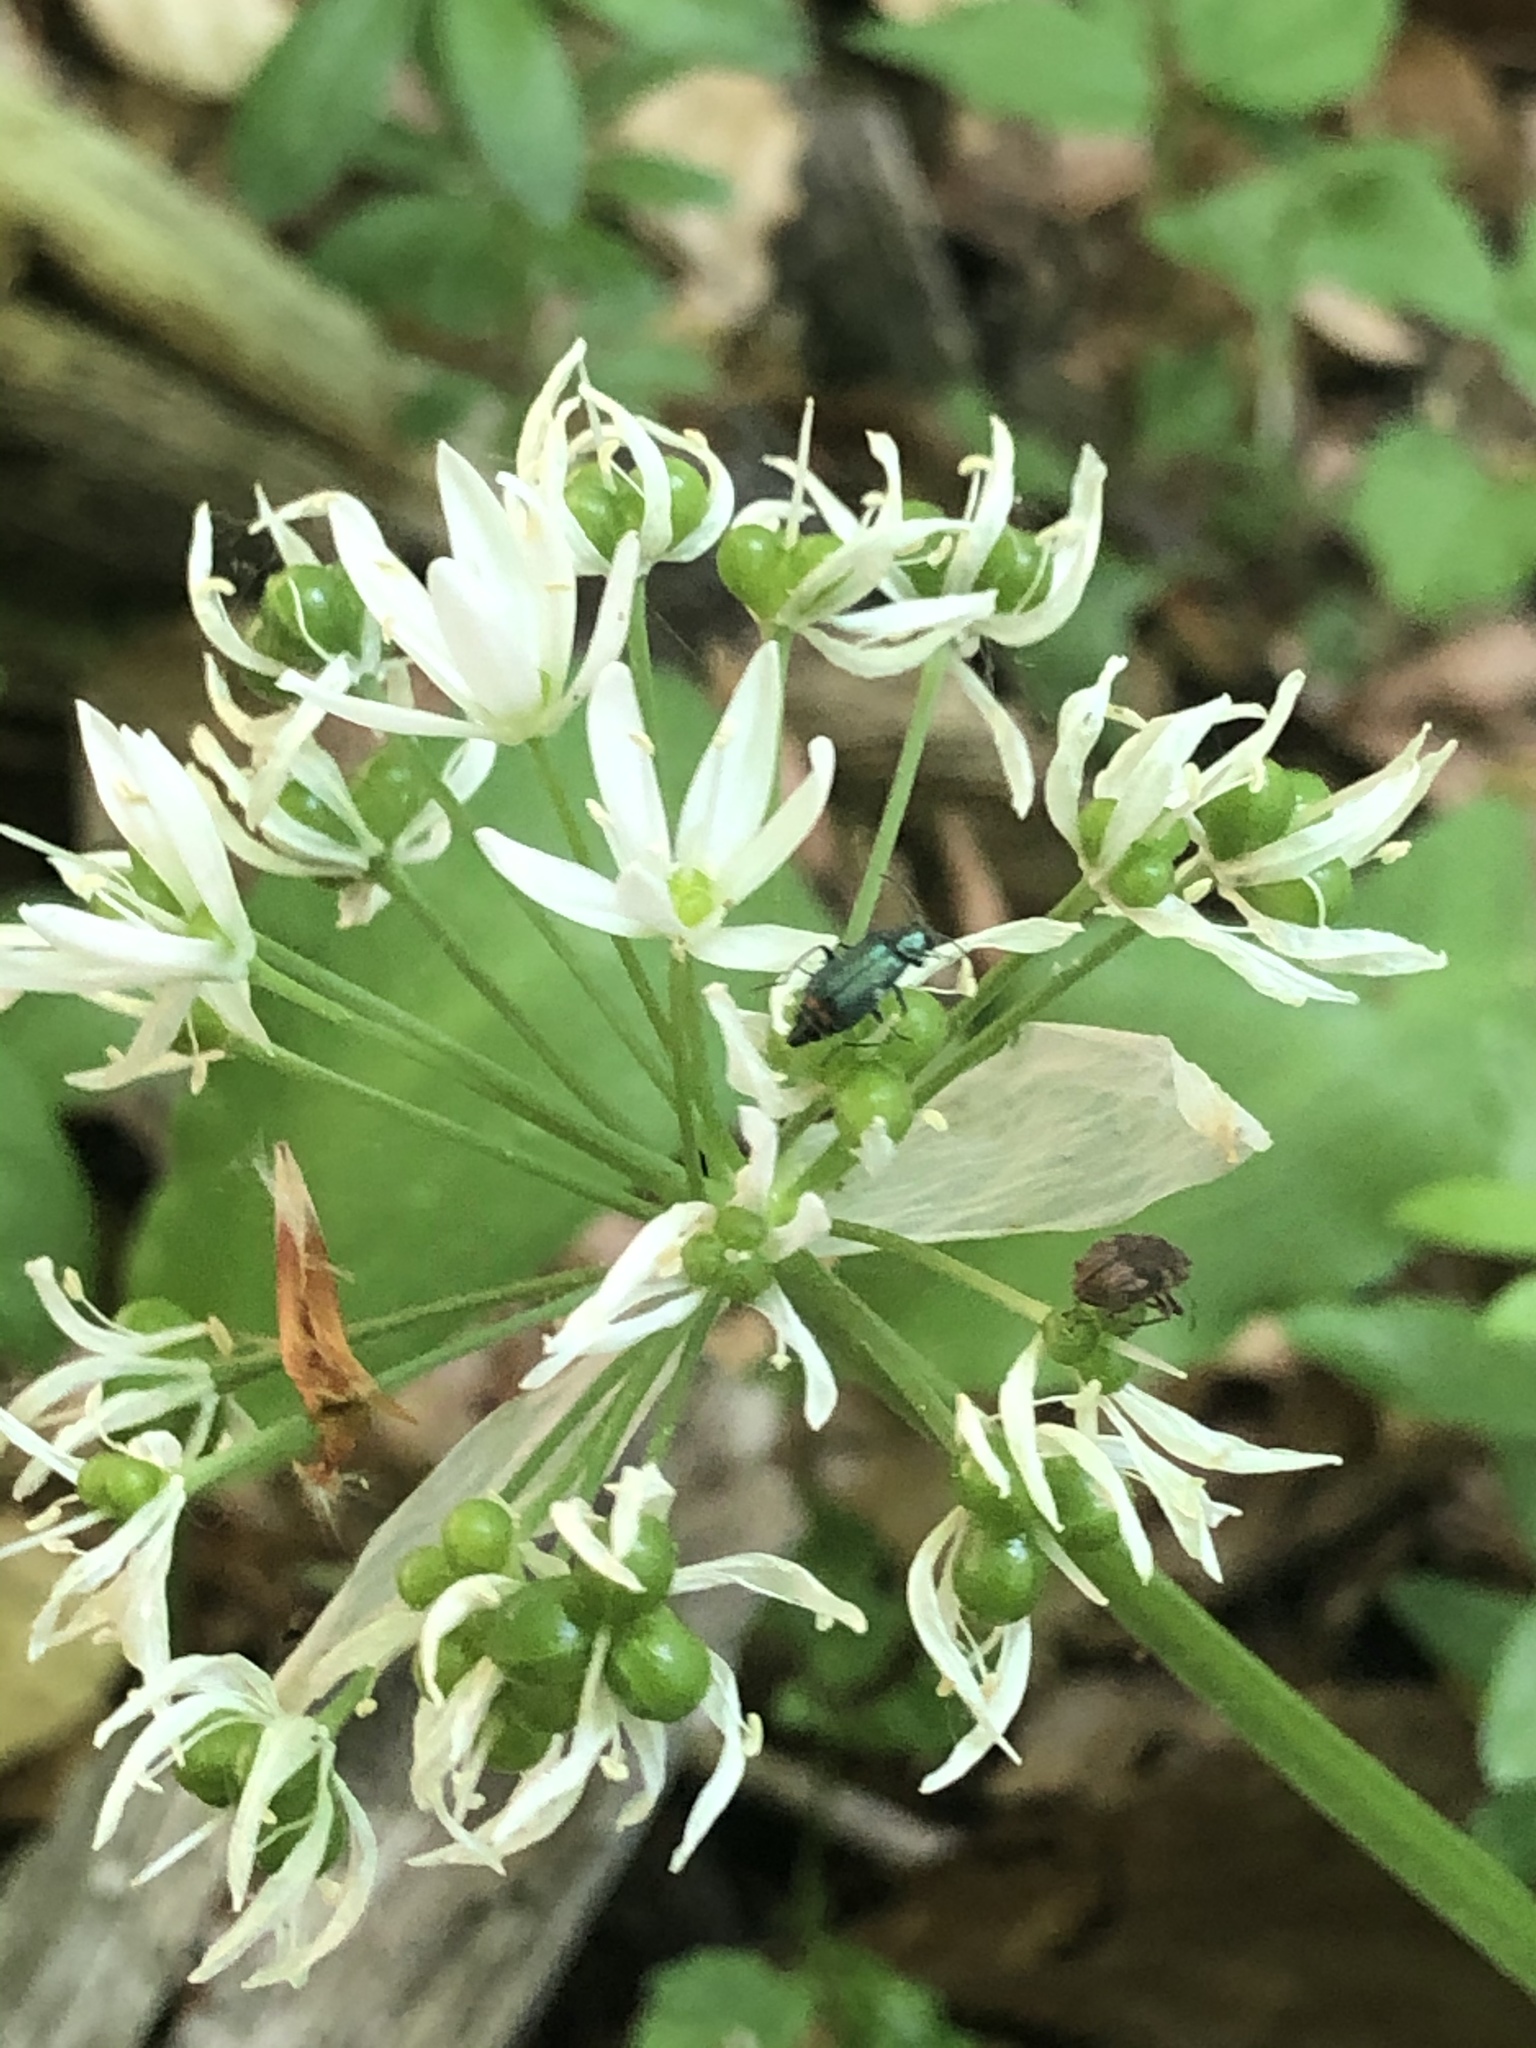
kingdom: Plantae
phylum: Tracheophyta
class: Liliopsida
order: Asparagales
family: Amaryllidaceae
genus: Allium
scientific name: Allium ursinum
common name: Ramsons
